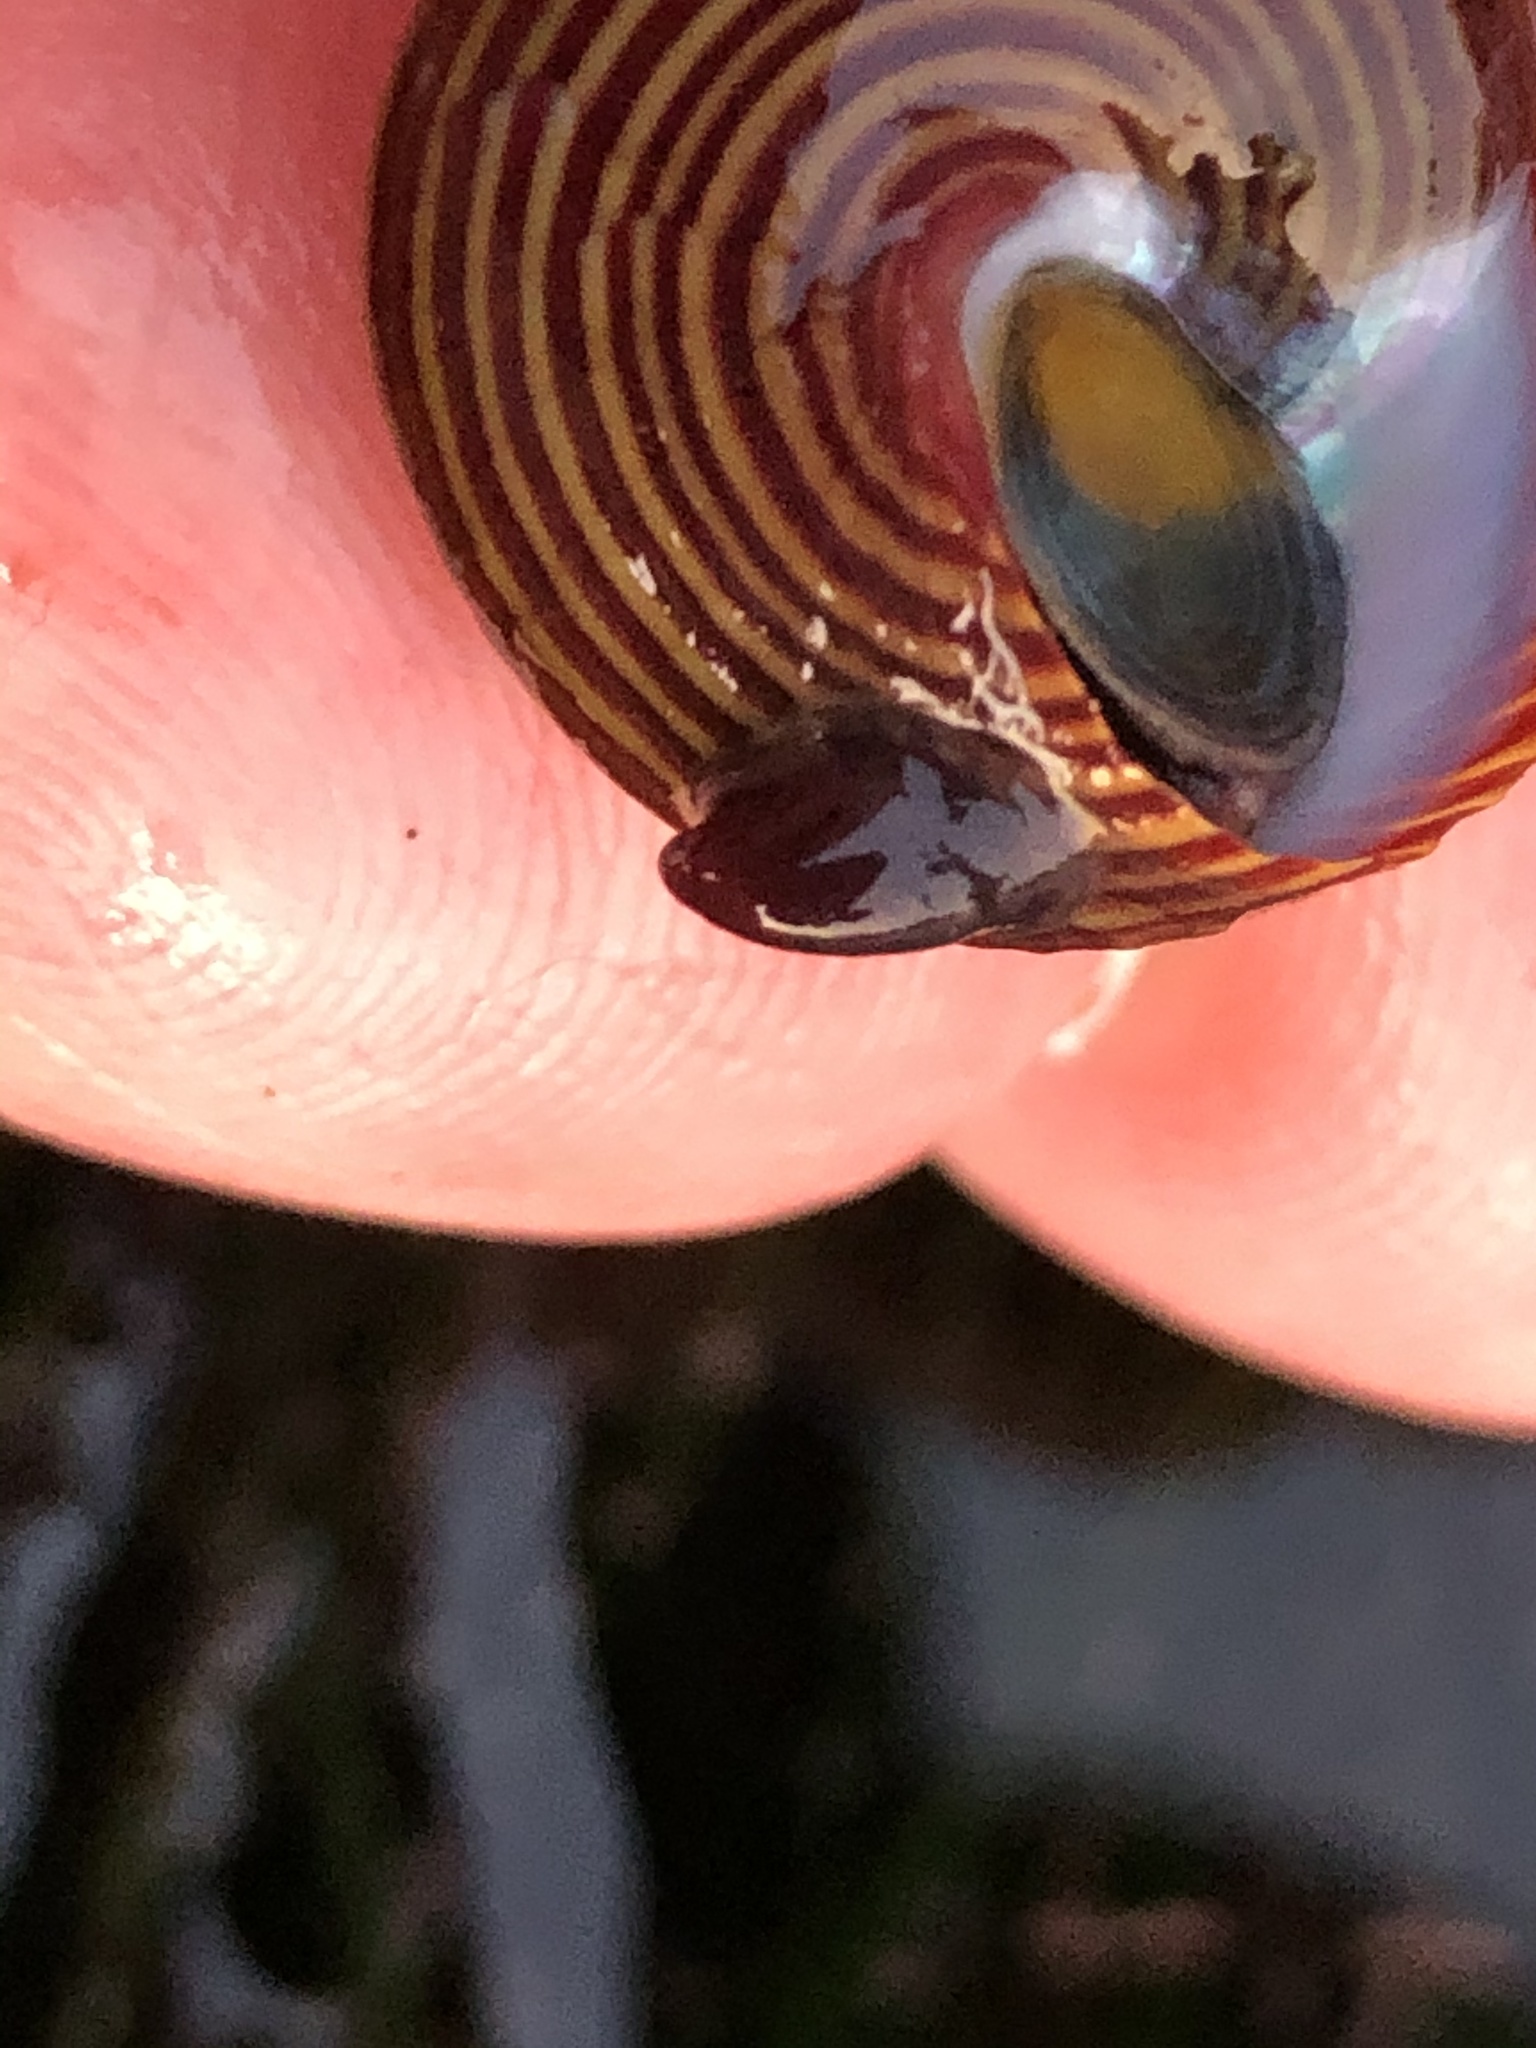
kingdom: Animalia
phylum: Mollusca
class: Gastropoda
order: Littorinimorpha
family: Calyptraeidae
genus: Crepidula
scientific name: Crepidula adunca
